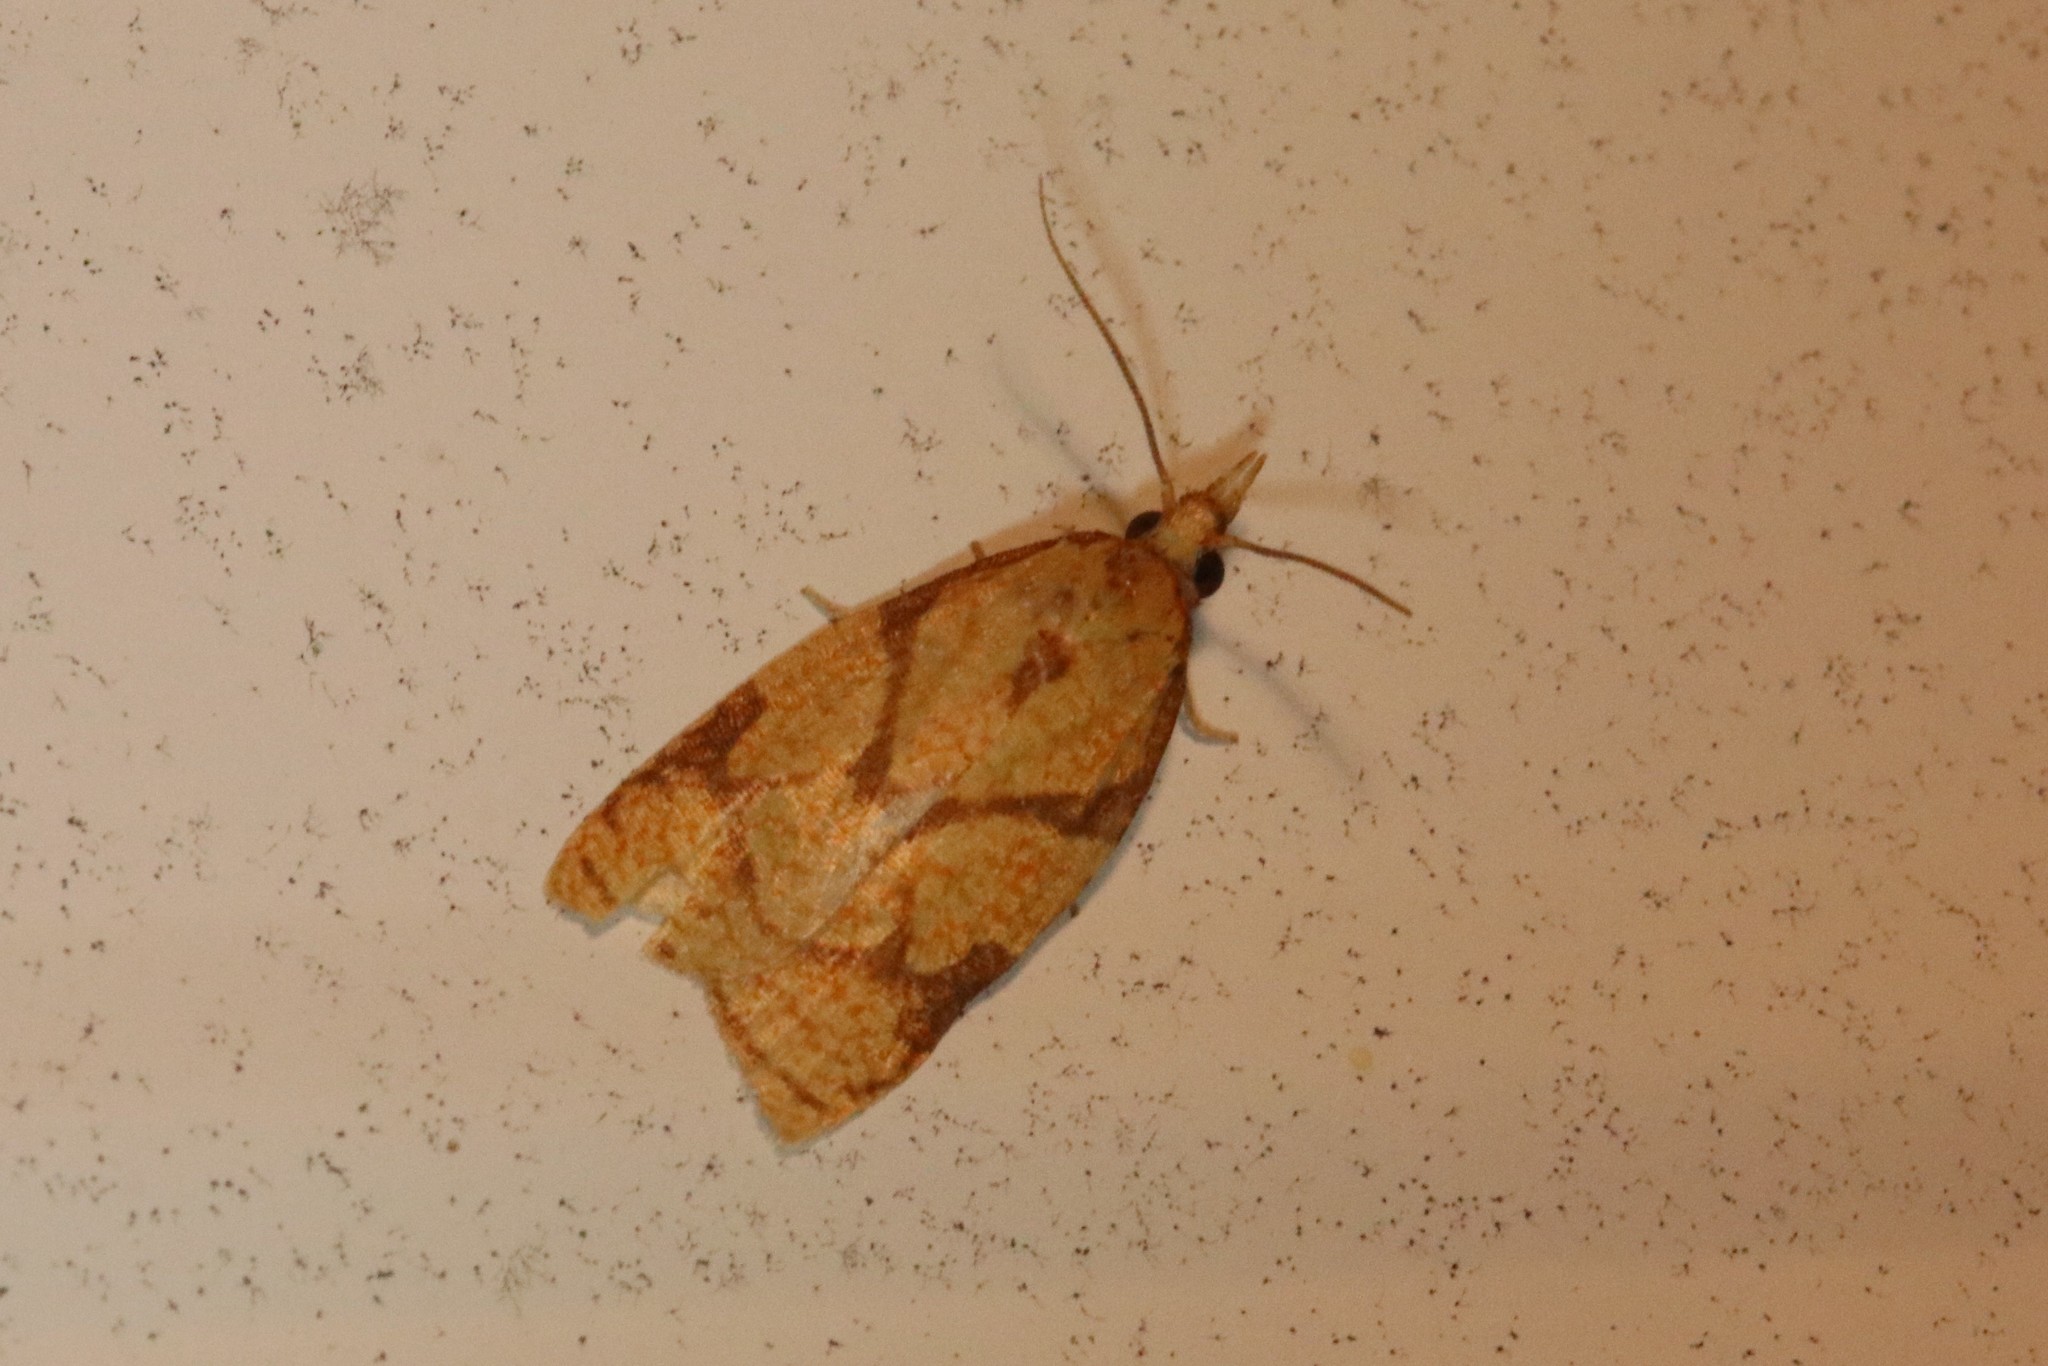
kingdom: Animalia
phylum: Arthropoda
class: Insecta
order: Lepidoptera
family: Tortricidae
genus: Cenopis
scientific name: Cenopis reticulatana
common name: Reticulated fruitworm moth
